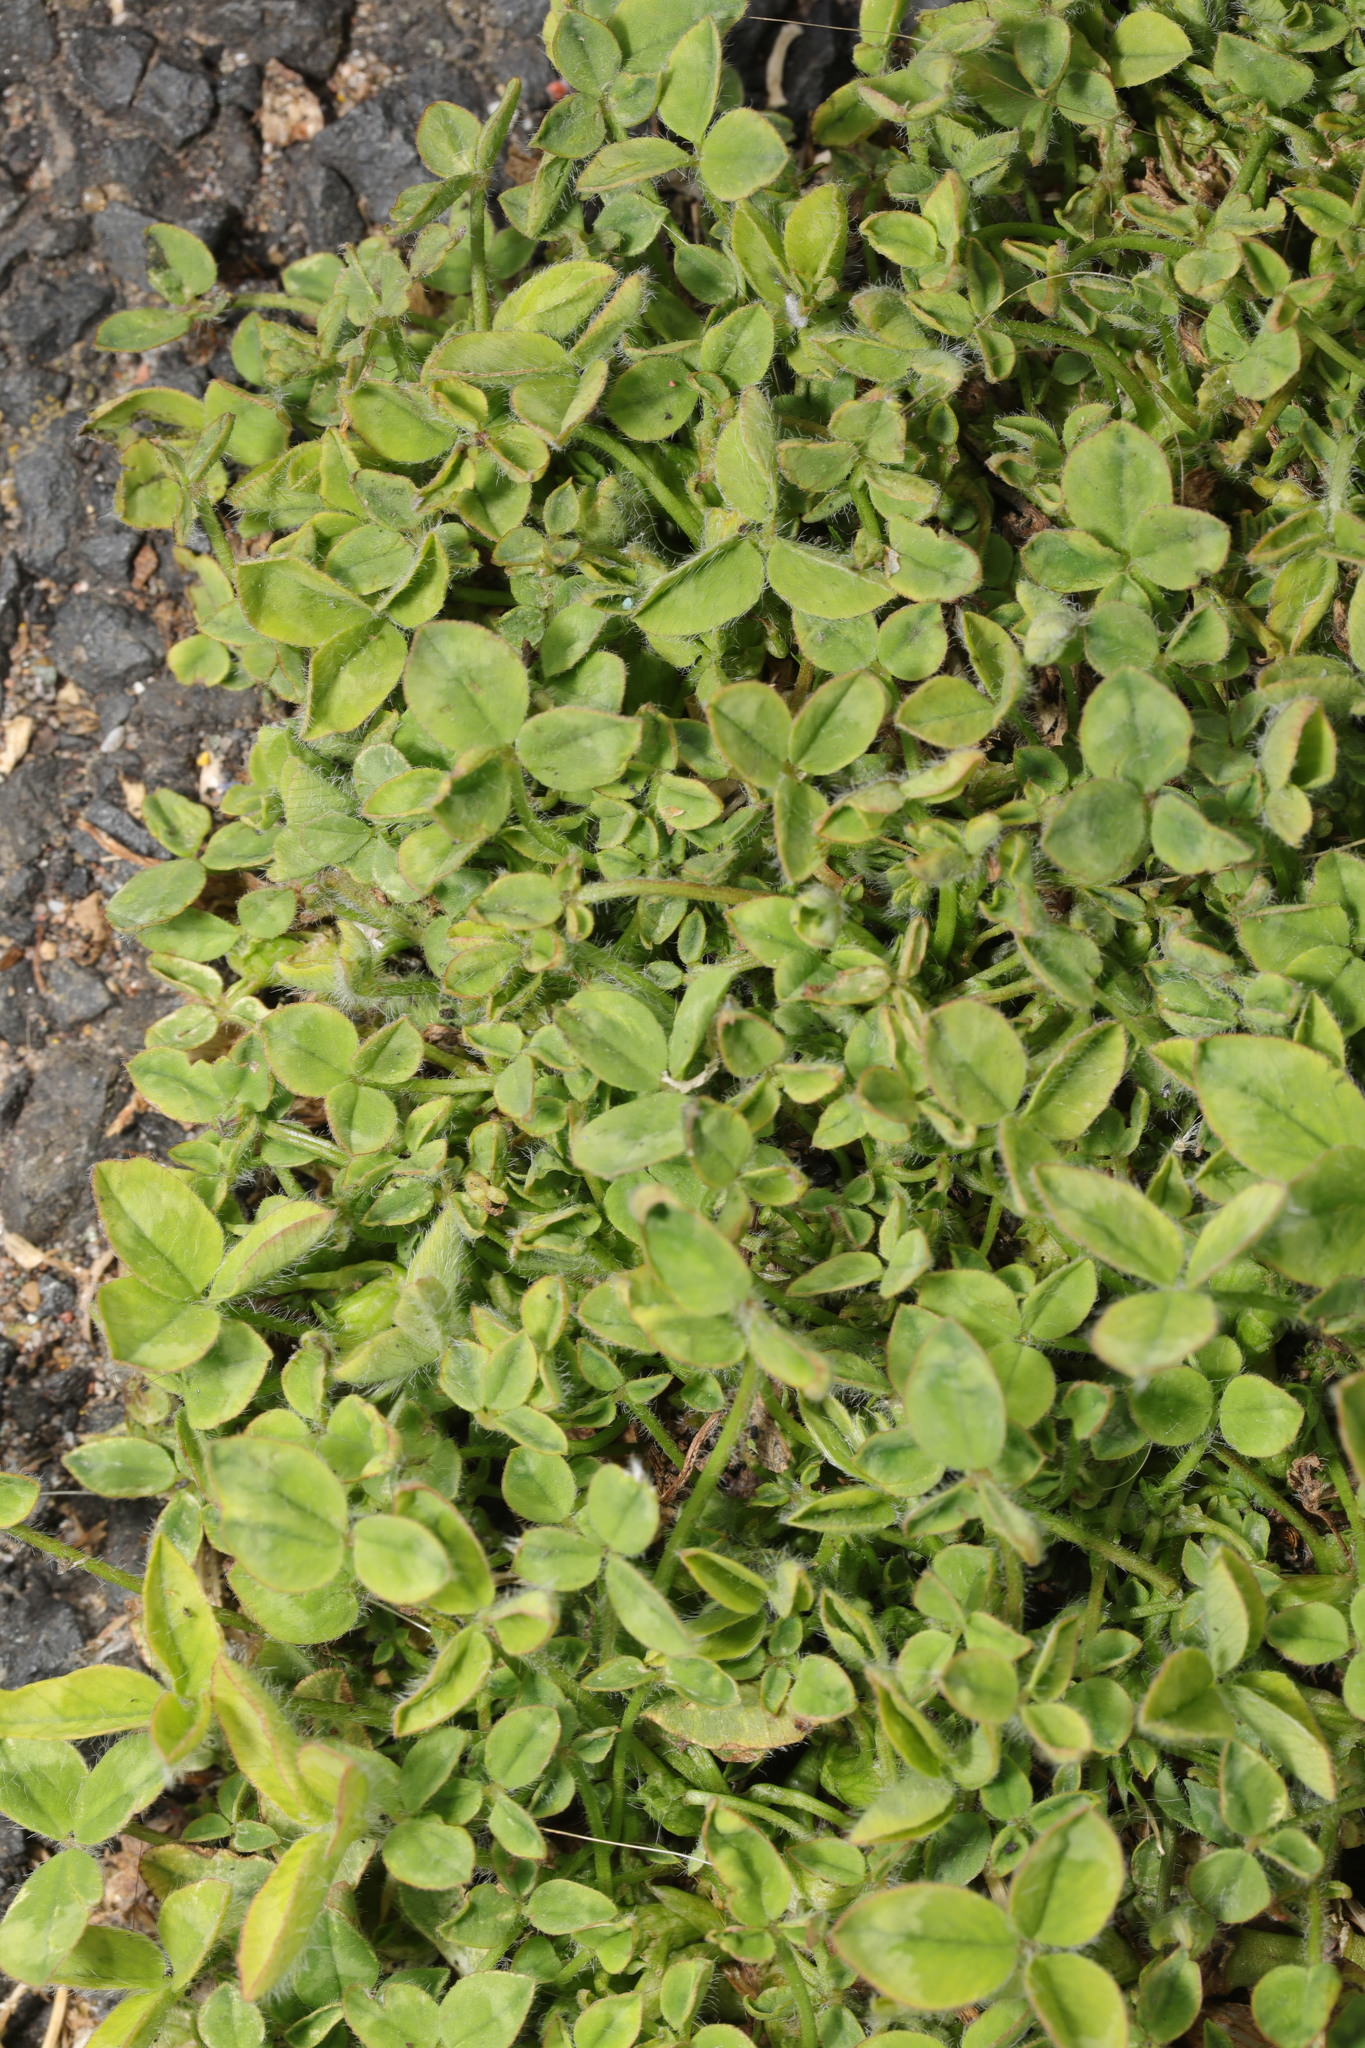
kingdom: Plantae
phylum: Tracheophyta
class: Magnoliopsida
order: Fabales
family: Fabaceae
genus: Trifolium
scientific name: Trifolium pratense
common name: Red clover
